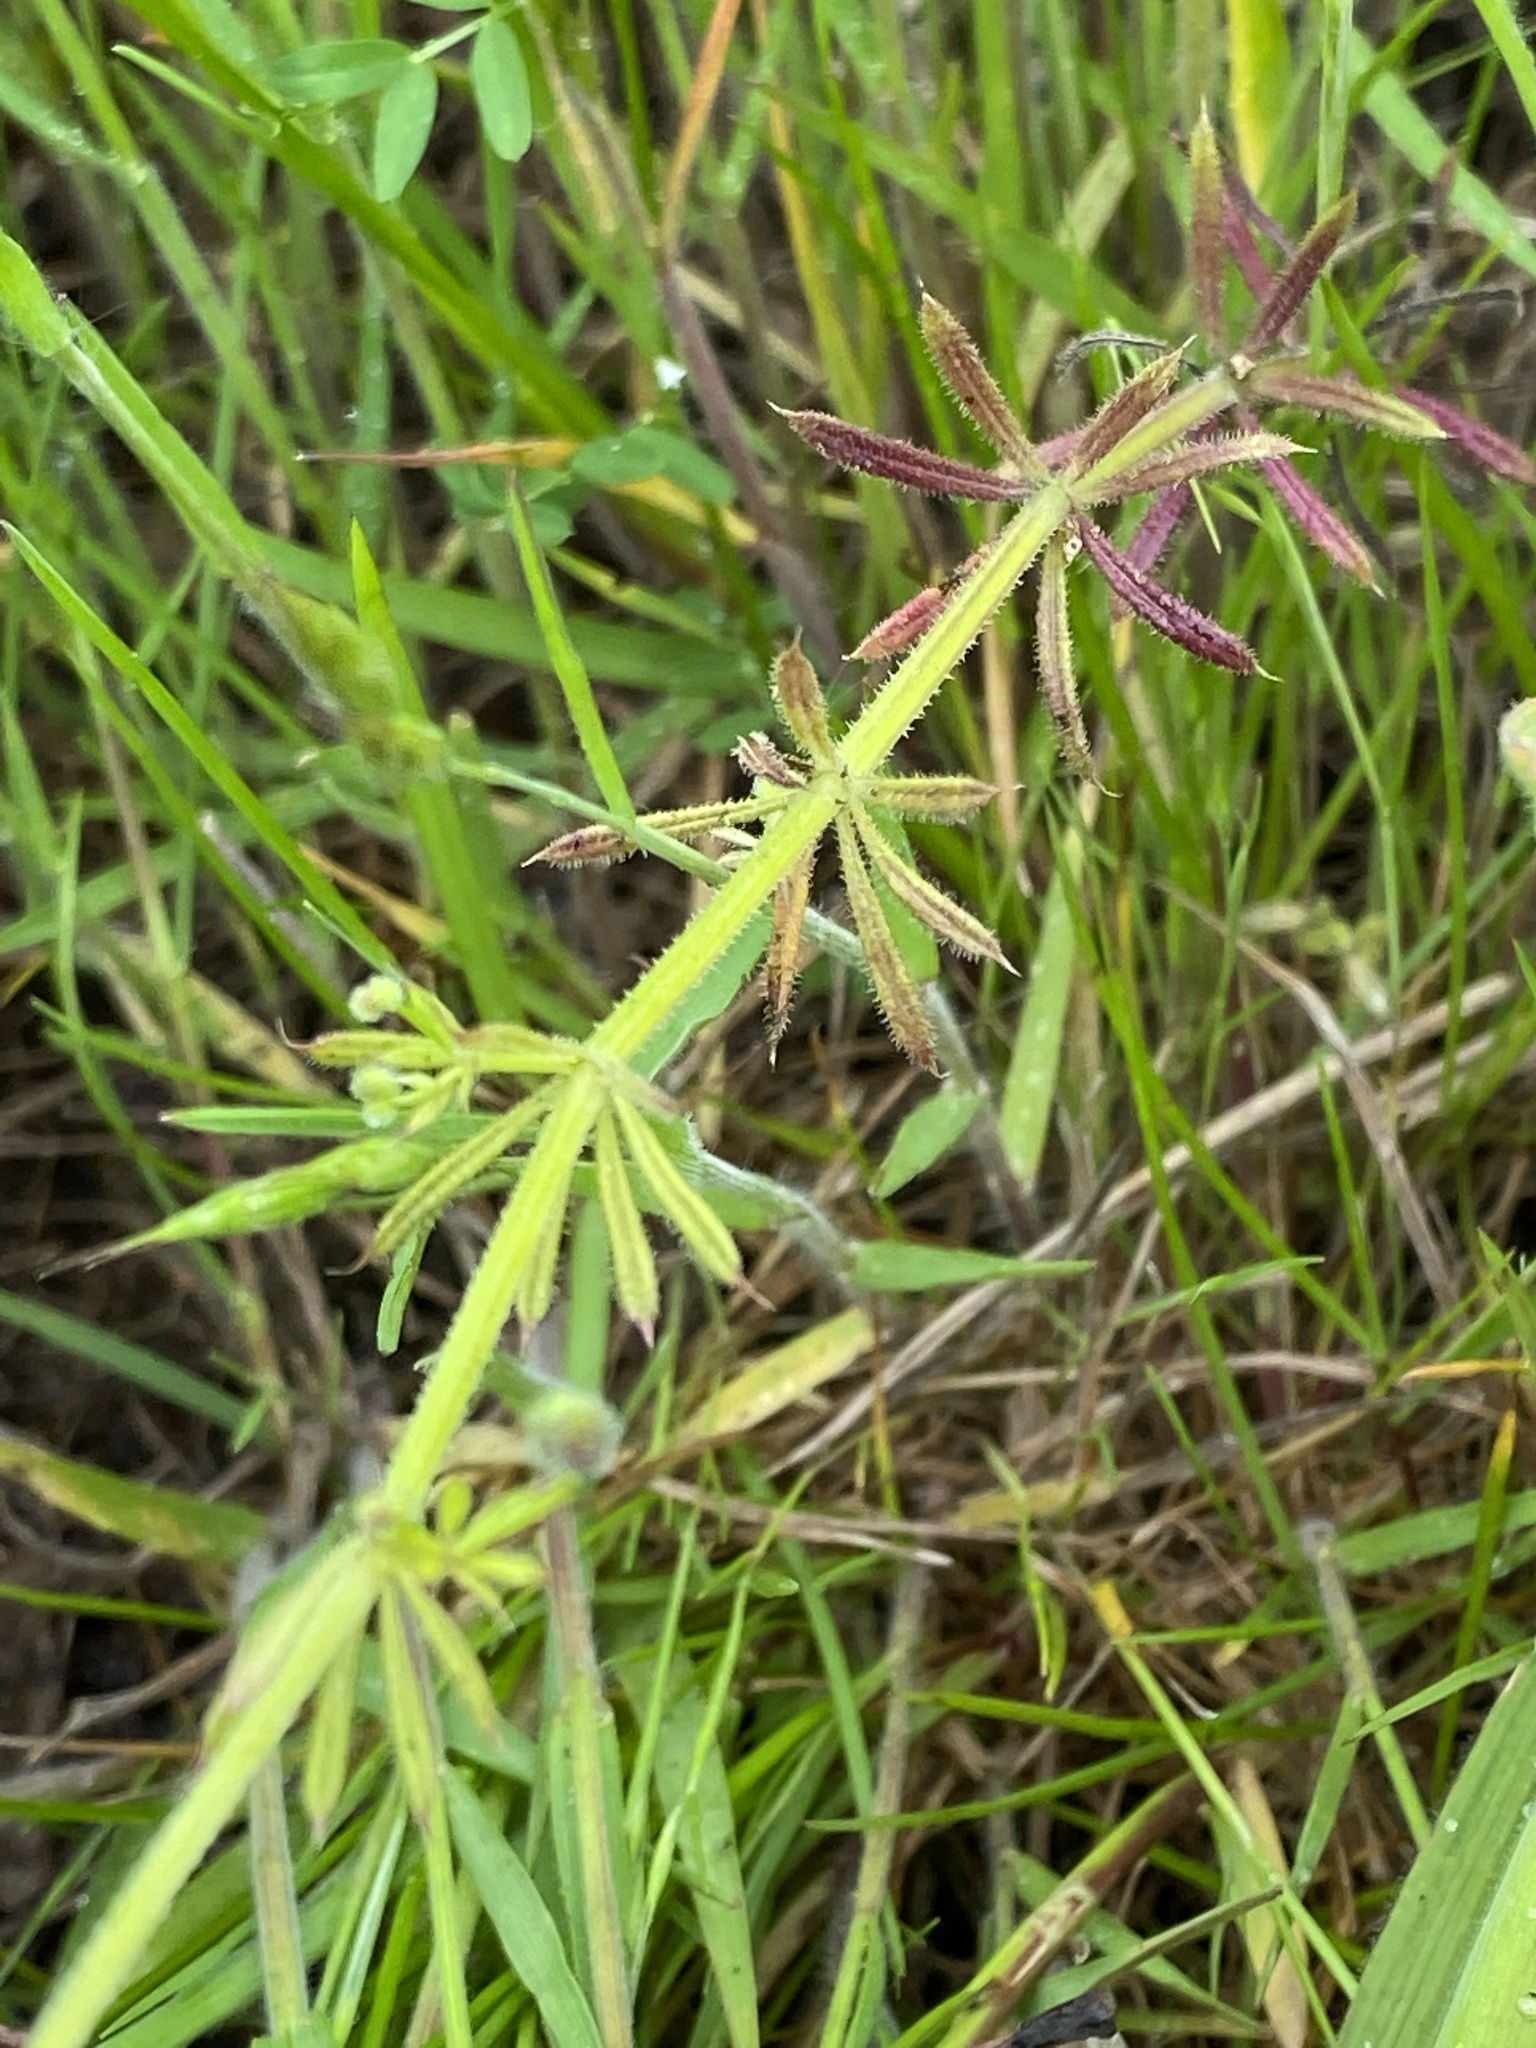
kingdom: Plantae
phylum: Tracheophyta
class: Magnoliopsida
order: Gentianales
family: Rubiaceae
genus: Galium
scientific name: Galium aparine
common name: Cleavers
